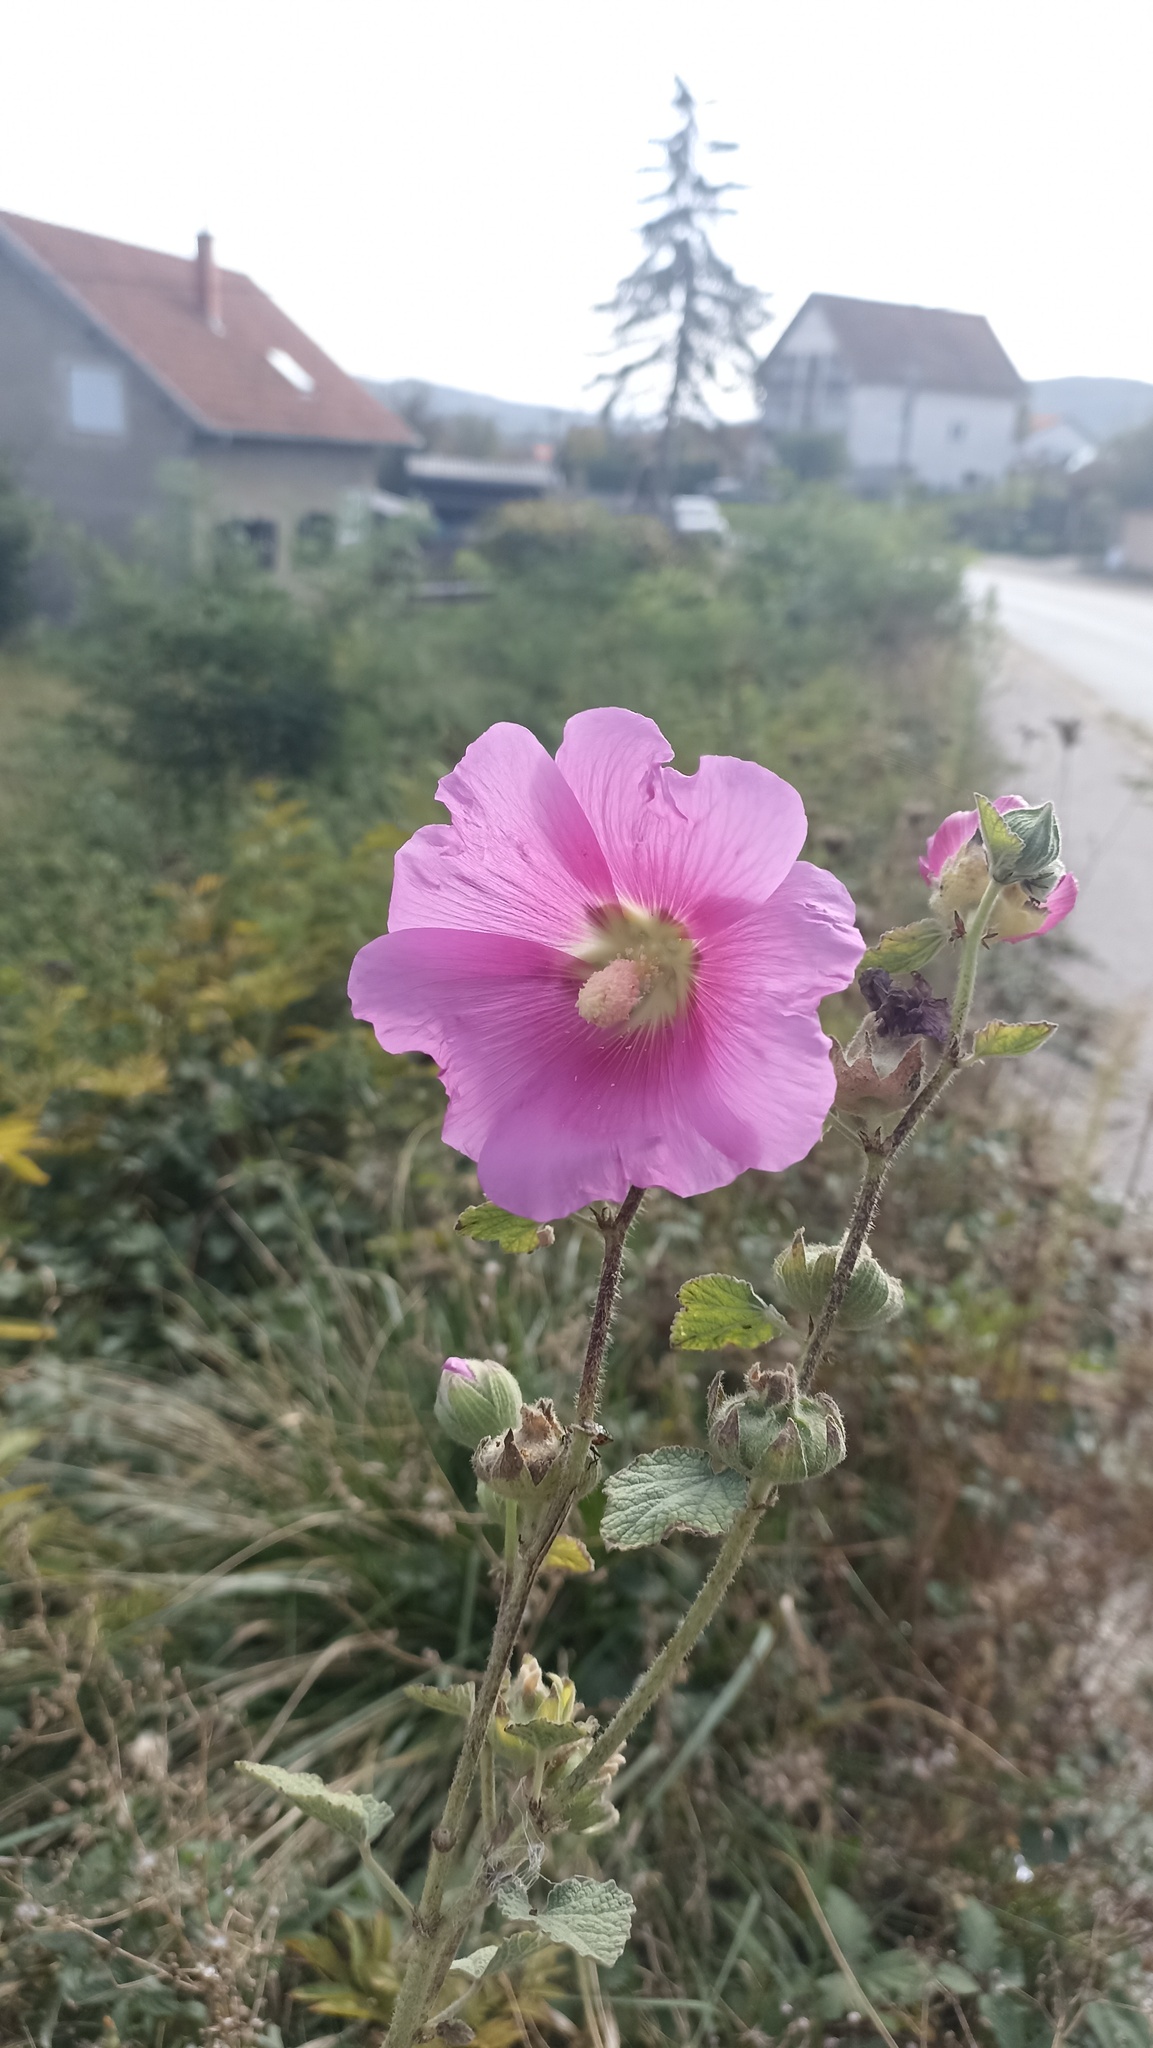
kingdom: Plantae
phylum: Tracheophyta
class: Magnoliopsida
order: Malvales
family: Malvaceae
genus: Alcea
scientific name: Alcea rosea
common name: Hollyhock
